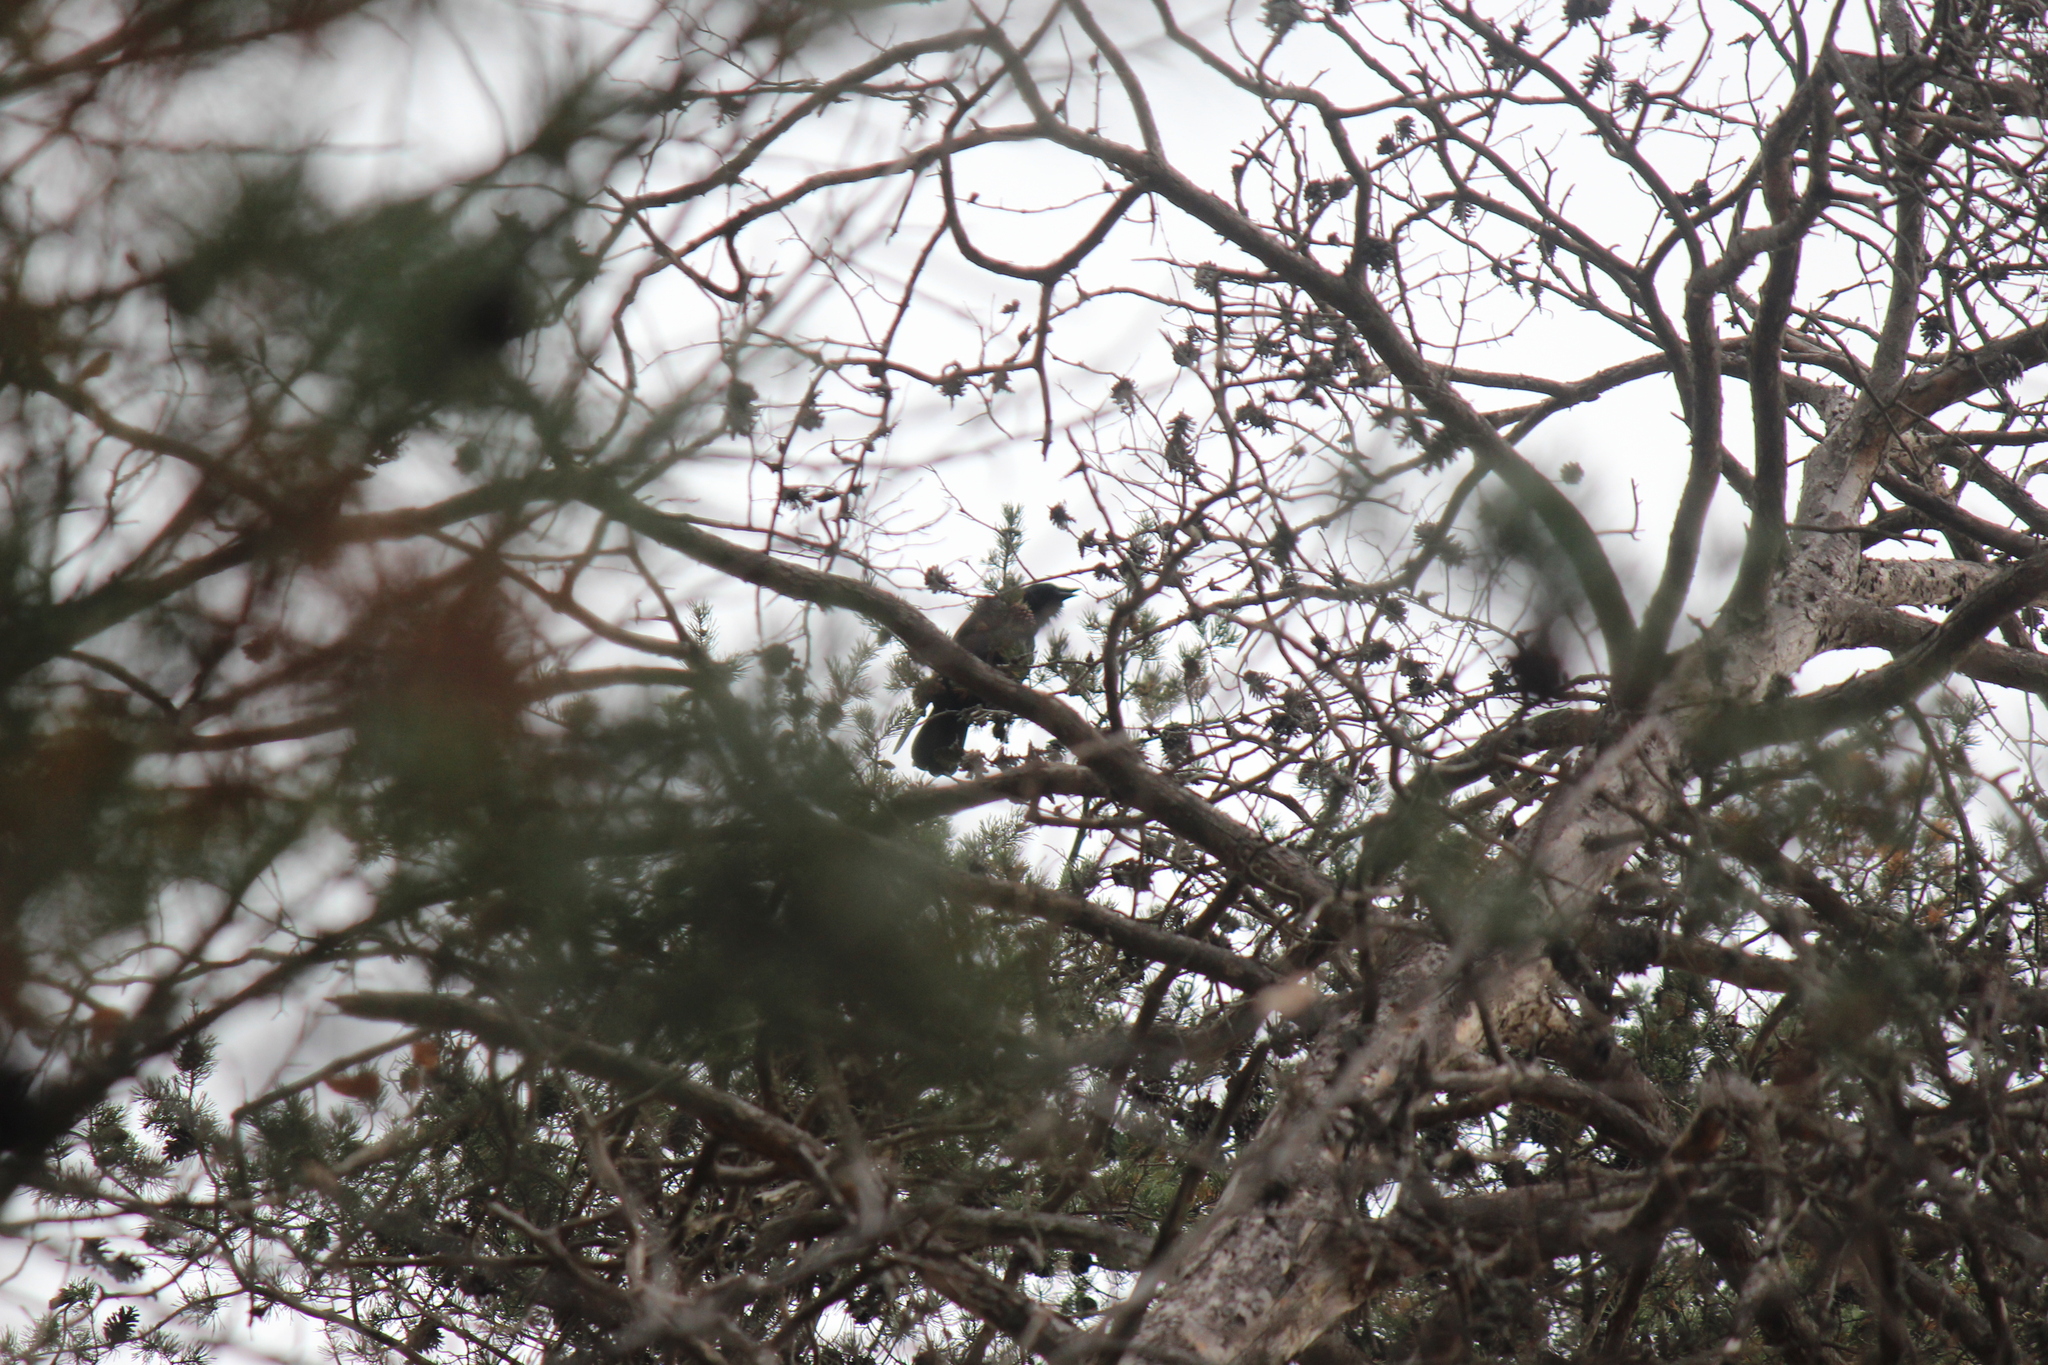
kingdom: Animalia
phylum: Chordata
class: Aves
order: Passeriformes
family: Corvidae
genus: Corvus
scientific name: Corvus ossifragus
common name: Fish crow
